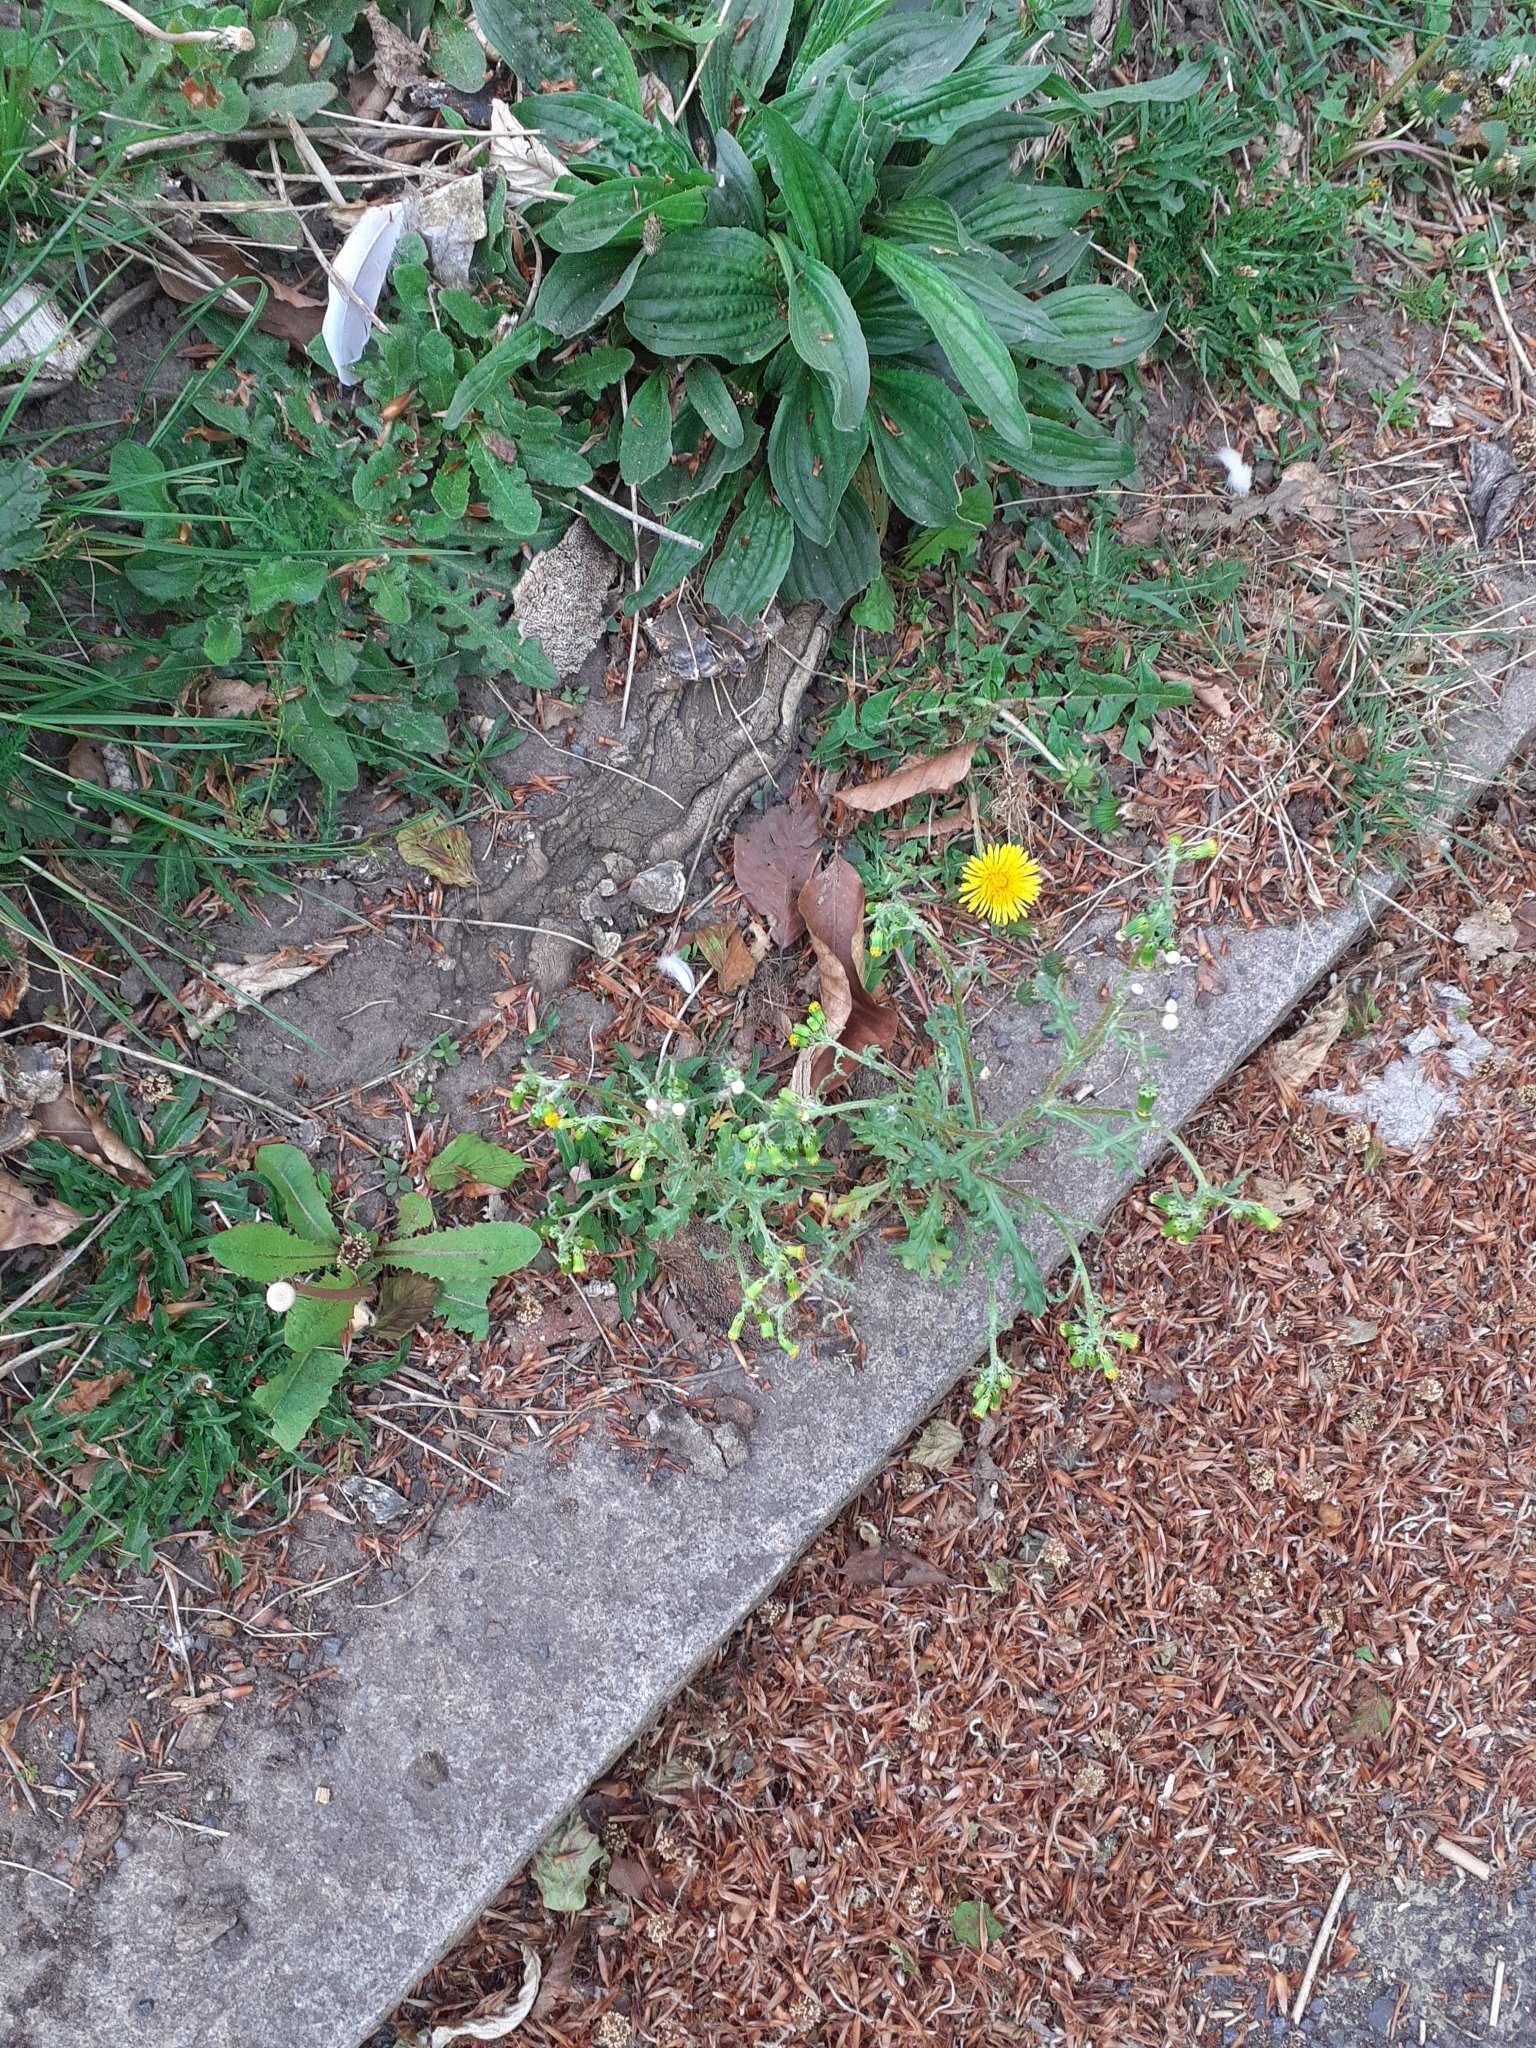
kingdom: Plantae
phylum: Tracheophyta
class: Magnoliopsida
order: Asterales
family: Asteraceae
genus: Senecio
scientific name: Senecio vulgaris
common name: Old-man-in-the-spring
